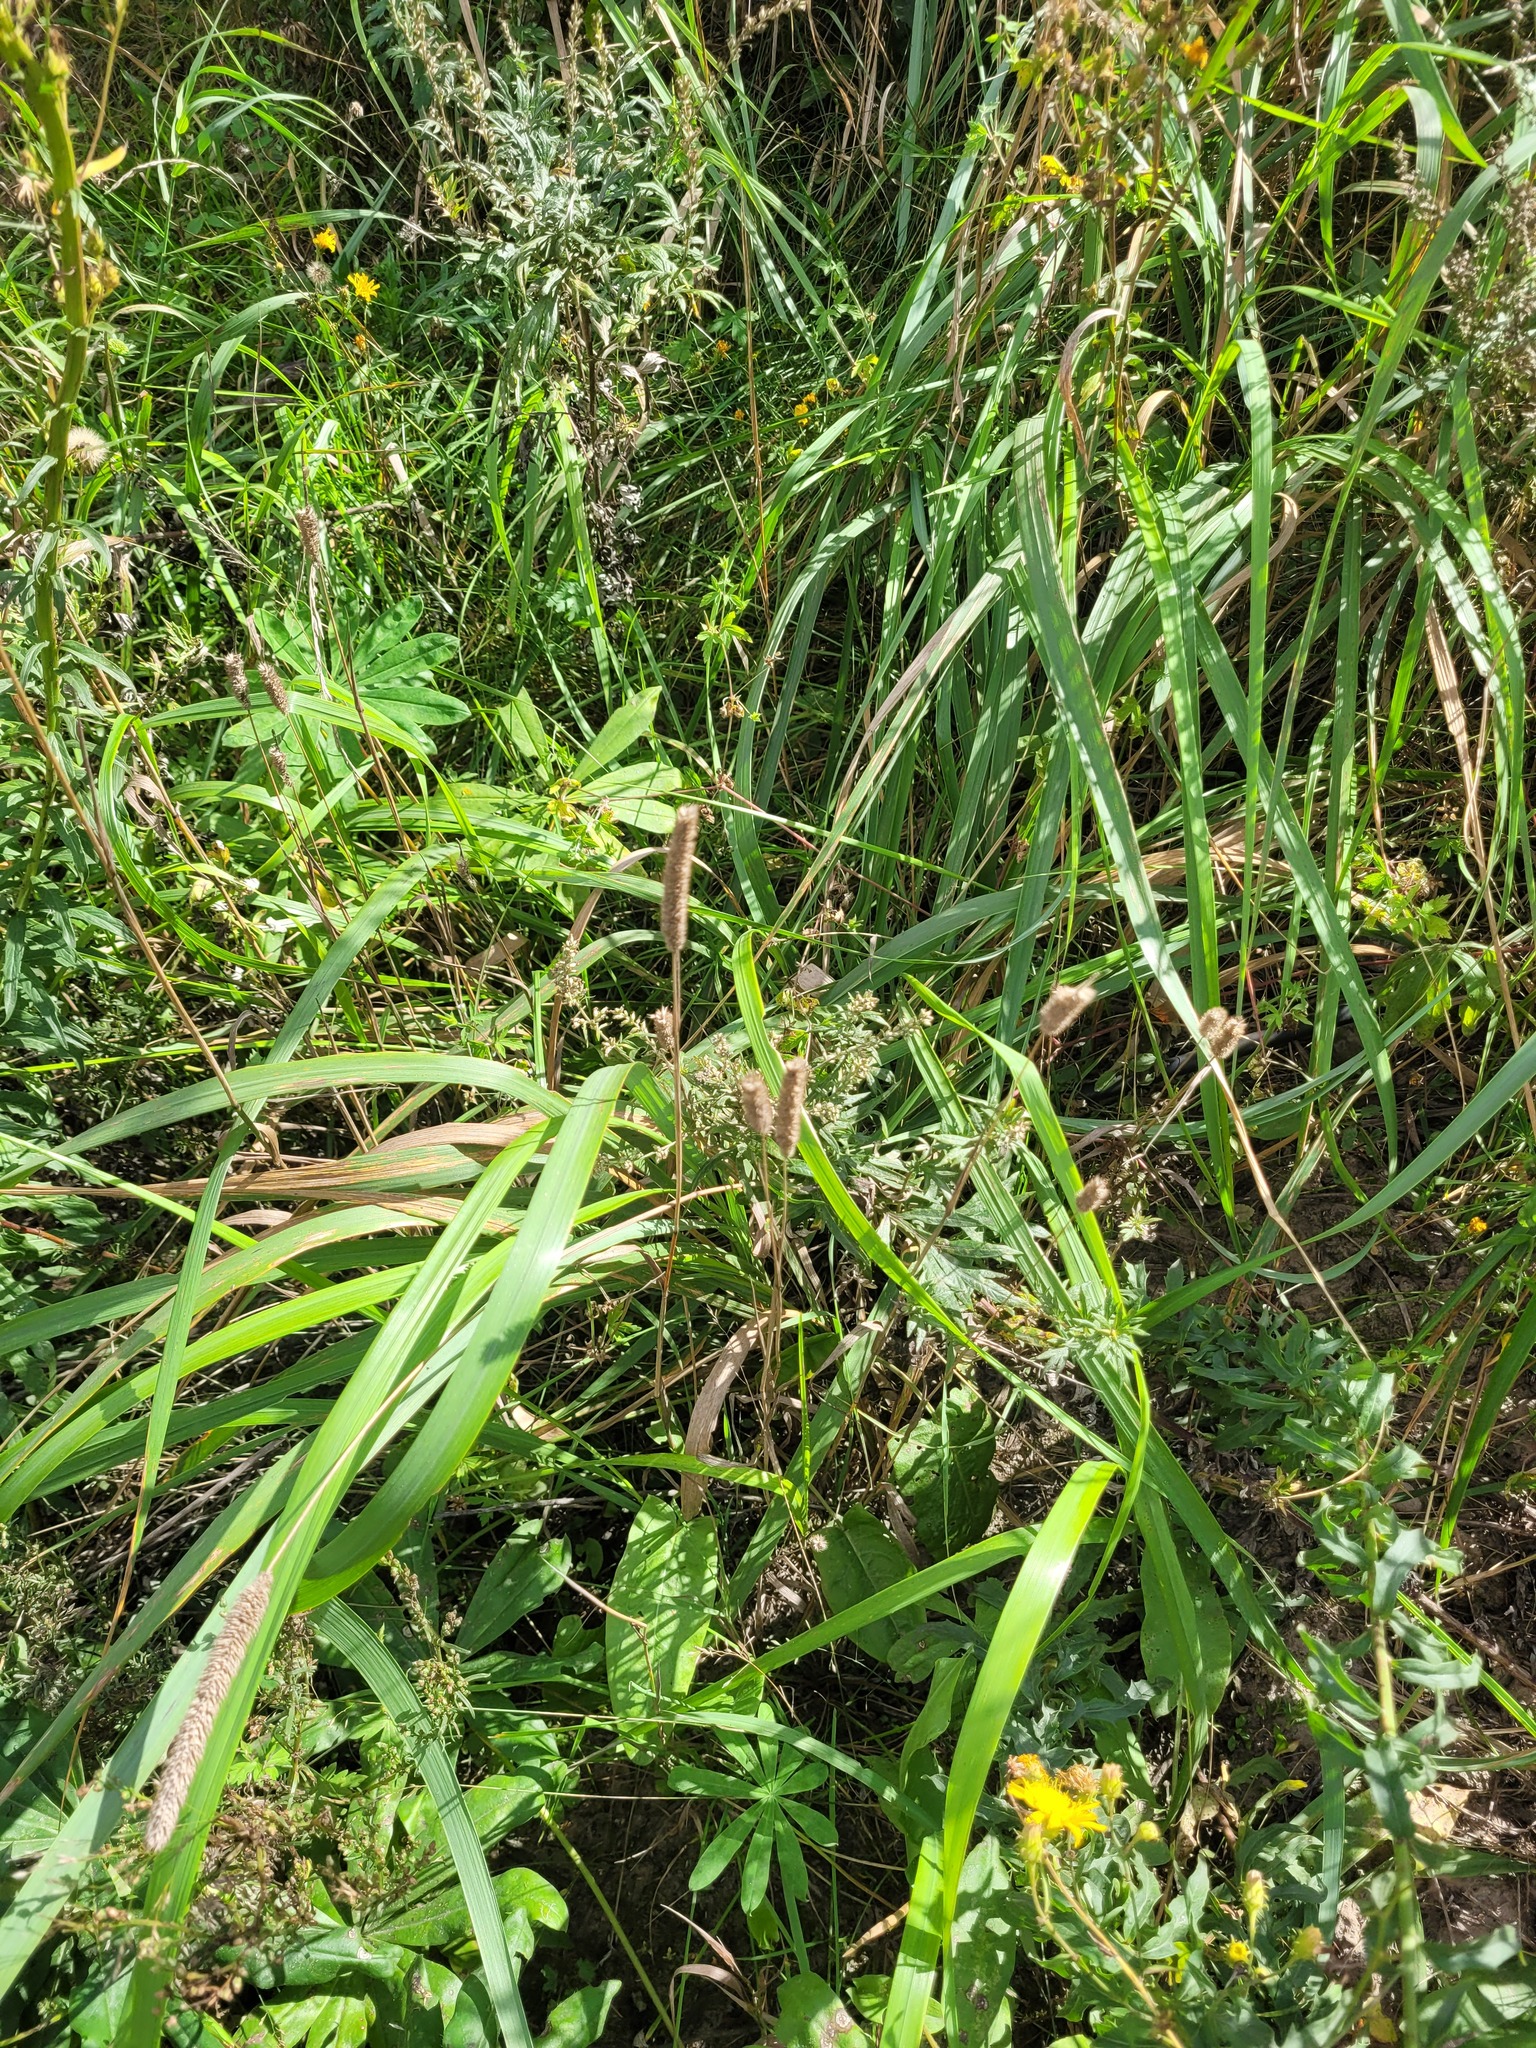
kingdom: Plantae
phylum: Tracheophyta
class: Liliopsida
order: Poales
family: Poaceae
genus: Phleum
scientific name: Phleum pratense
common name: Timothy grass
